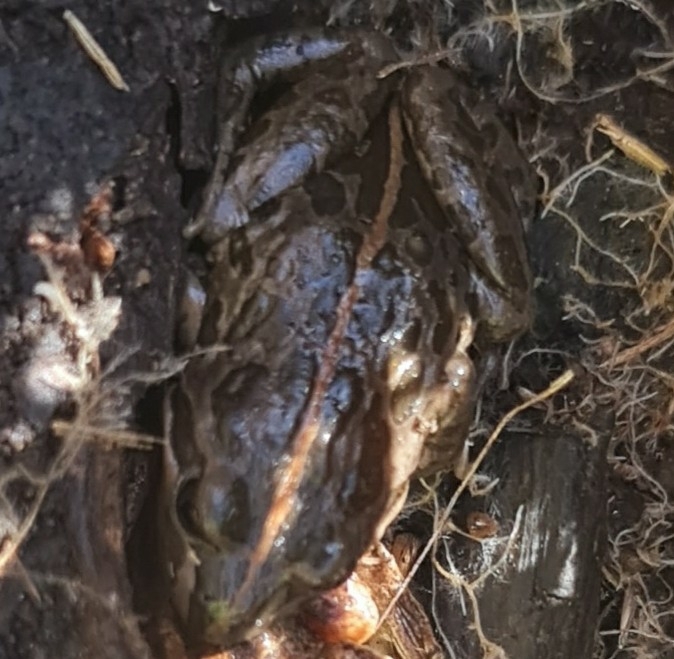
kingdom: Animalia
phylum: Chordata
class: Amphibia
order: Anura
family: Limnodynastidae
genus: Limnodynastes
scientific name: Limnodynastes tasmaniensis
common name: Spotted marsh frog
